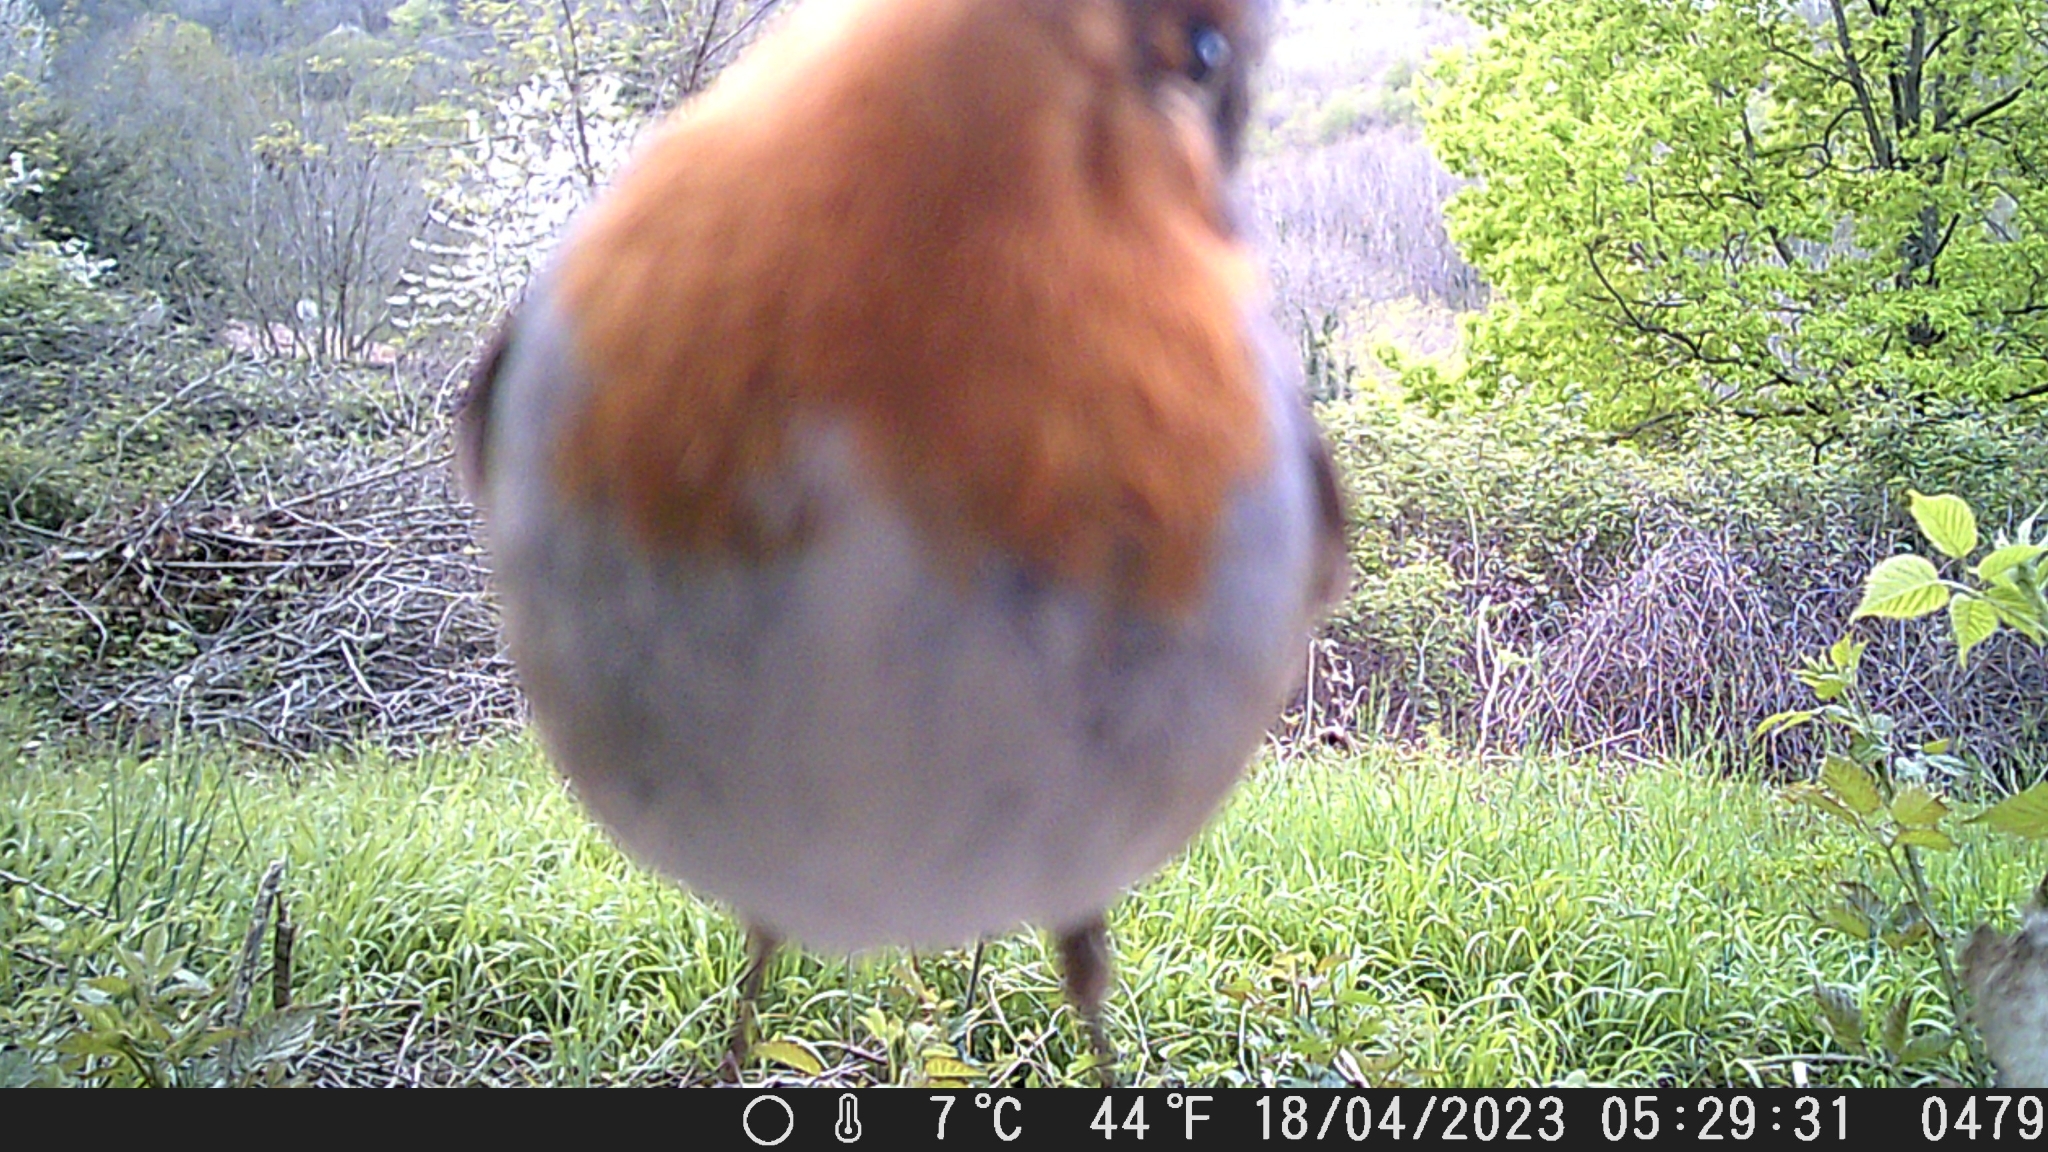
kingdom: Animalia
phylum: Chordata
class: Aves
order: Passeriformes
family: Muscicapidae
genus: Erithacus
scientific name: Erithacus rubecula
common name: European robin
